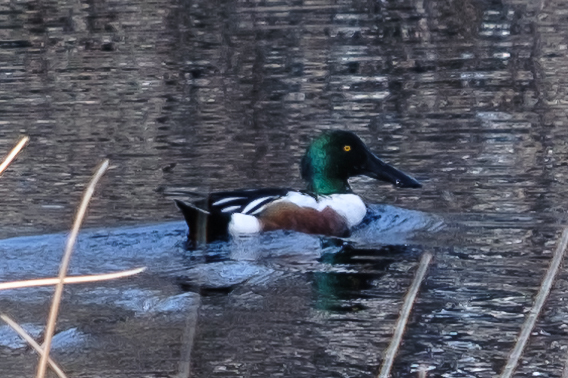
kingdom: Animalia
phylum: Chordata
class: Aves
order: Anseriformes
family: Anatidae
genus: Spatula
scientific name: Spatula clypeata
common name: Northern shoveler
